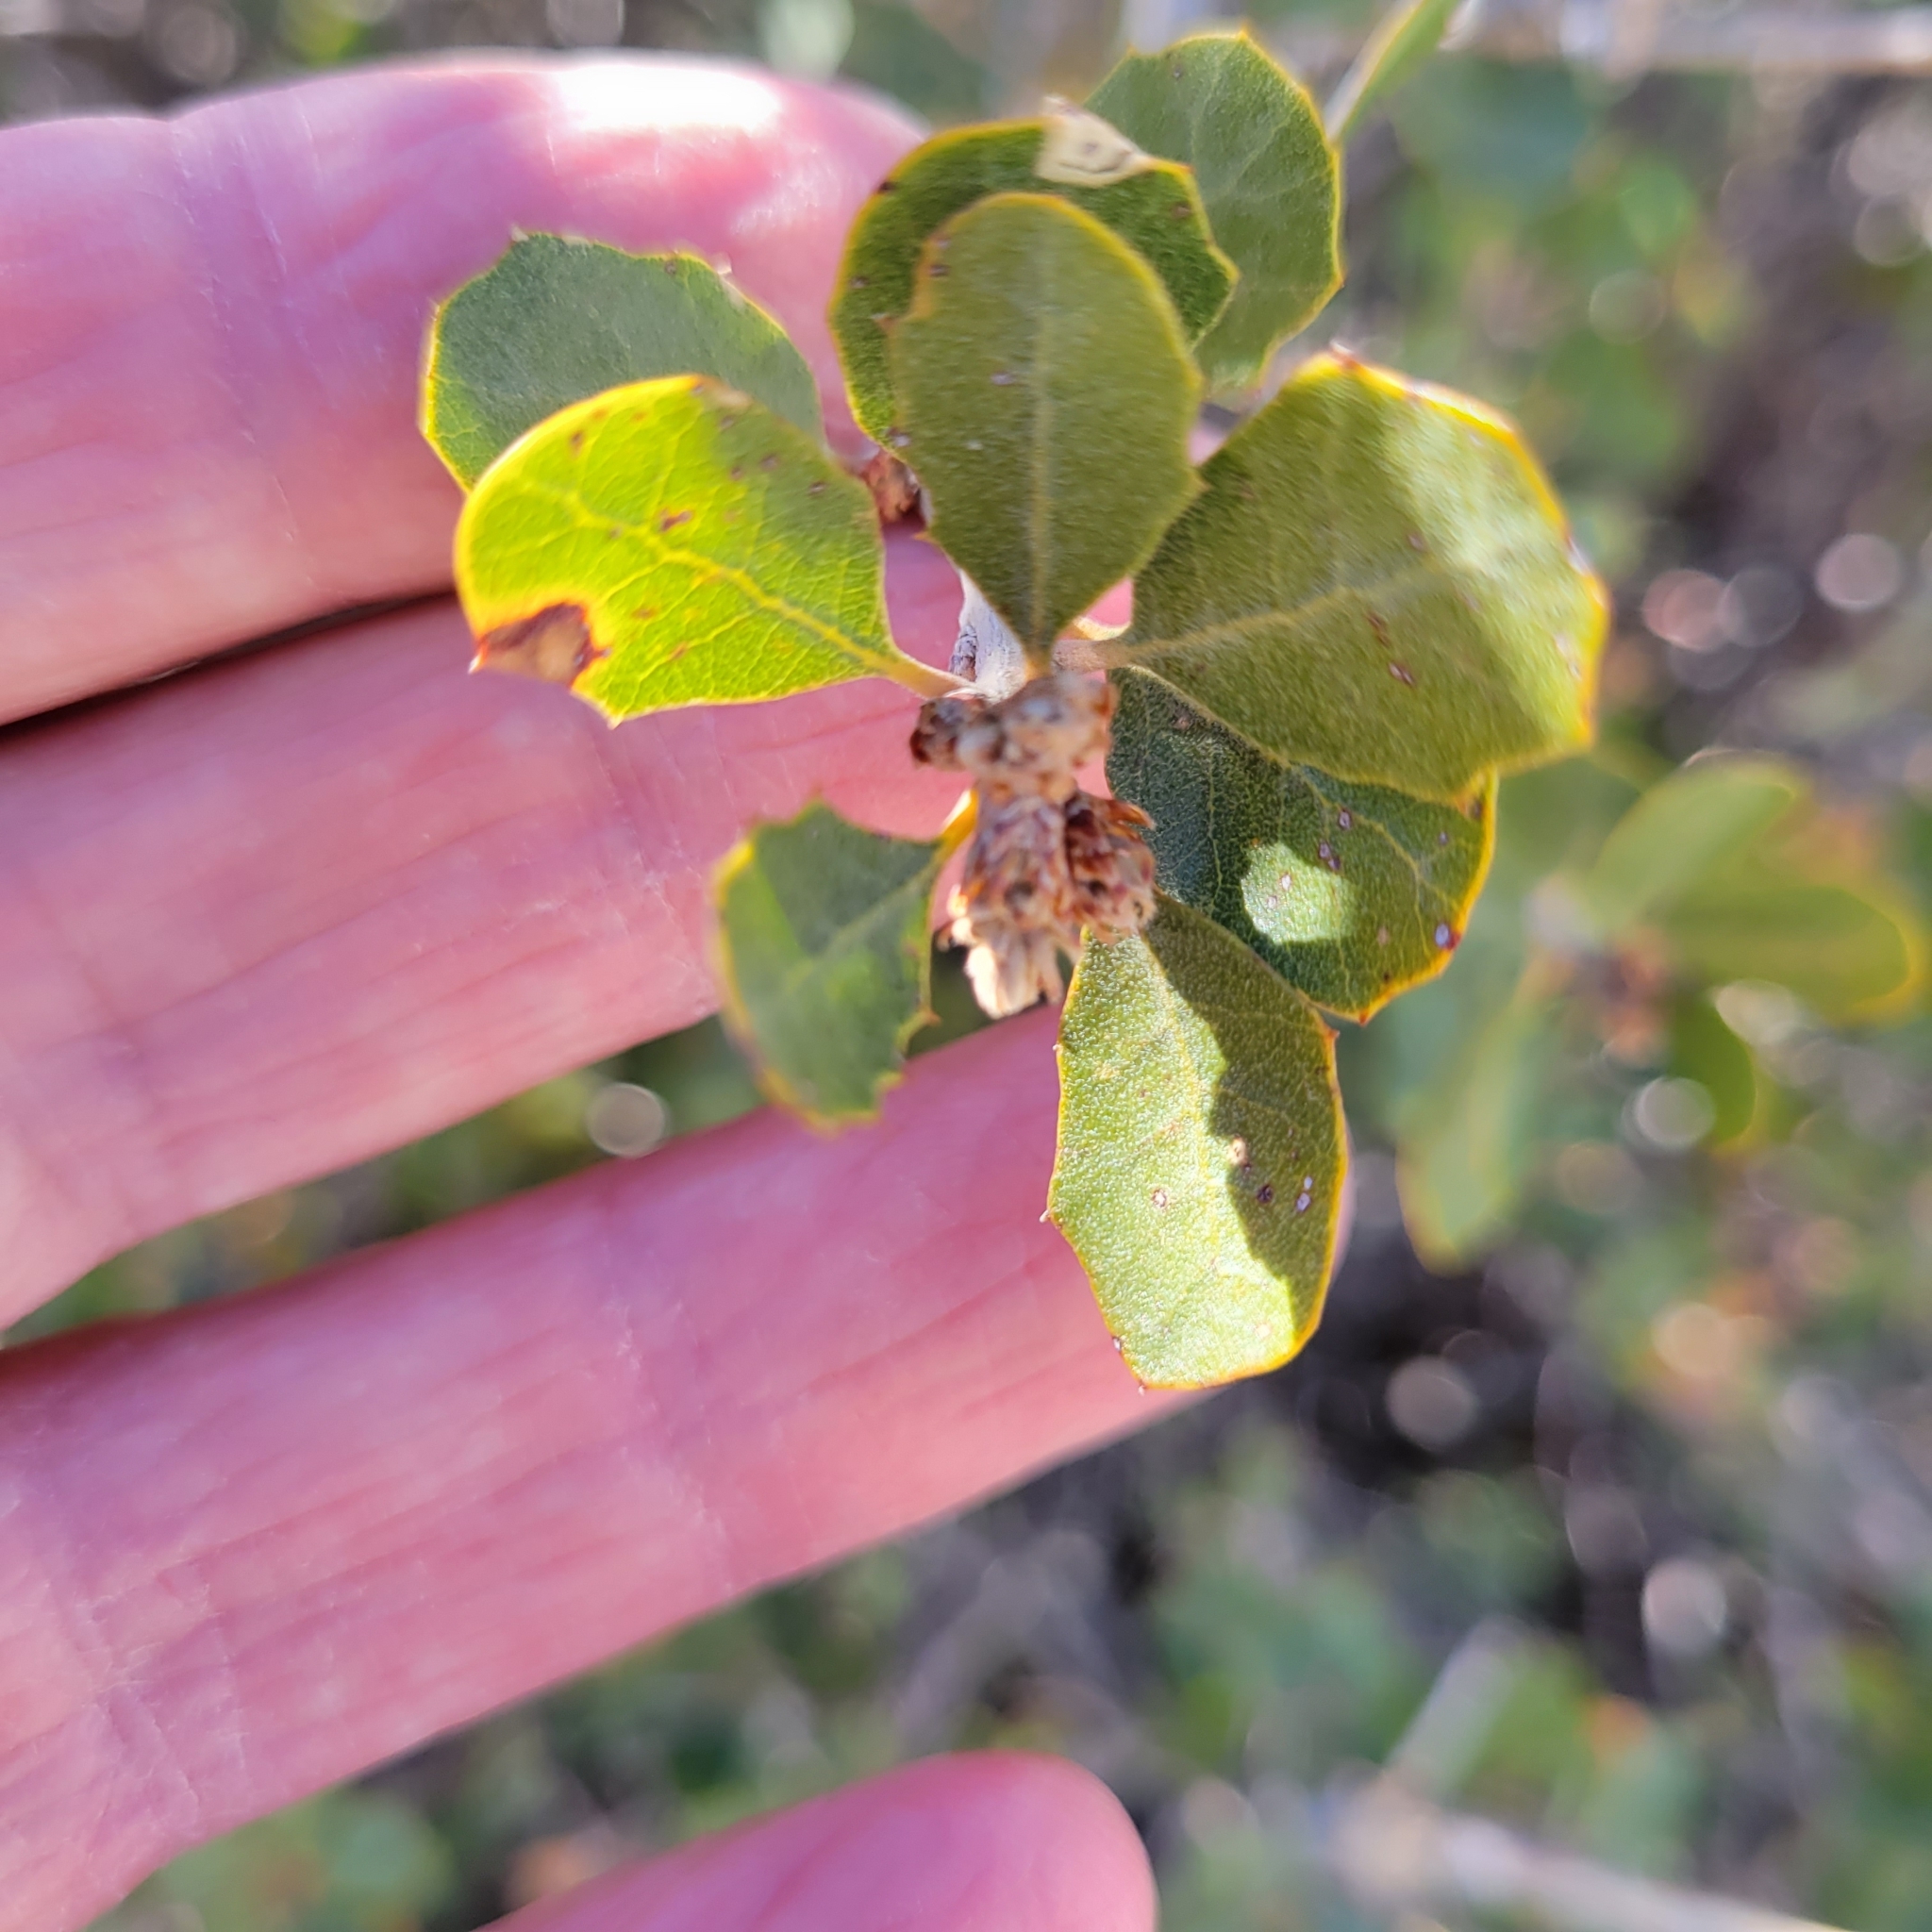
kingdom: Plantae
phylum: Tracheophyta
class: Magnoliopsida
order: Fagales
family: Fagaceae
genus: Quercus
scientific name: Quercus cornelius-mulleri
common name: Muller oak
